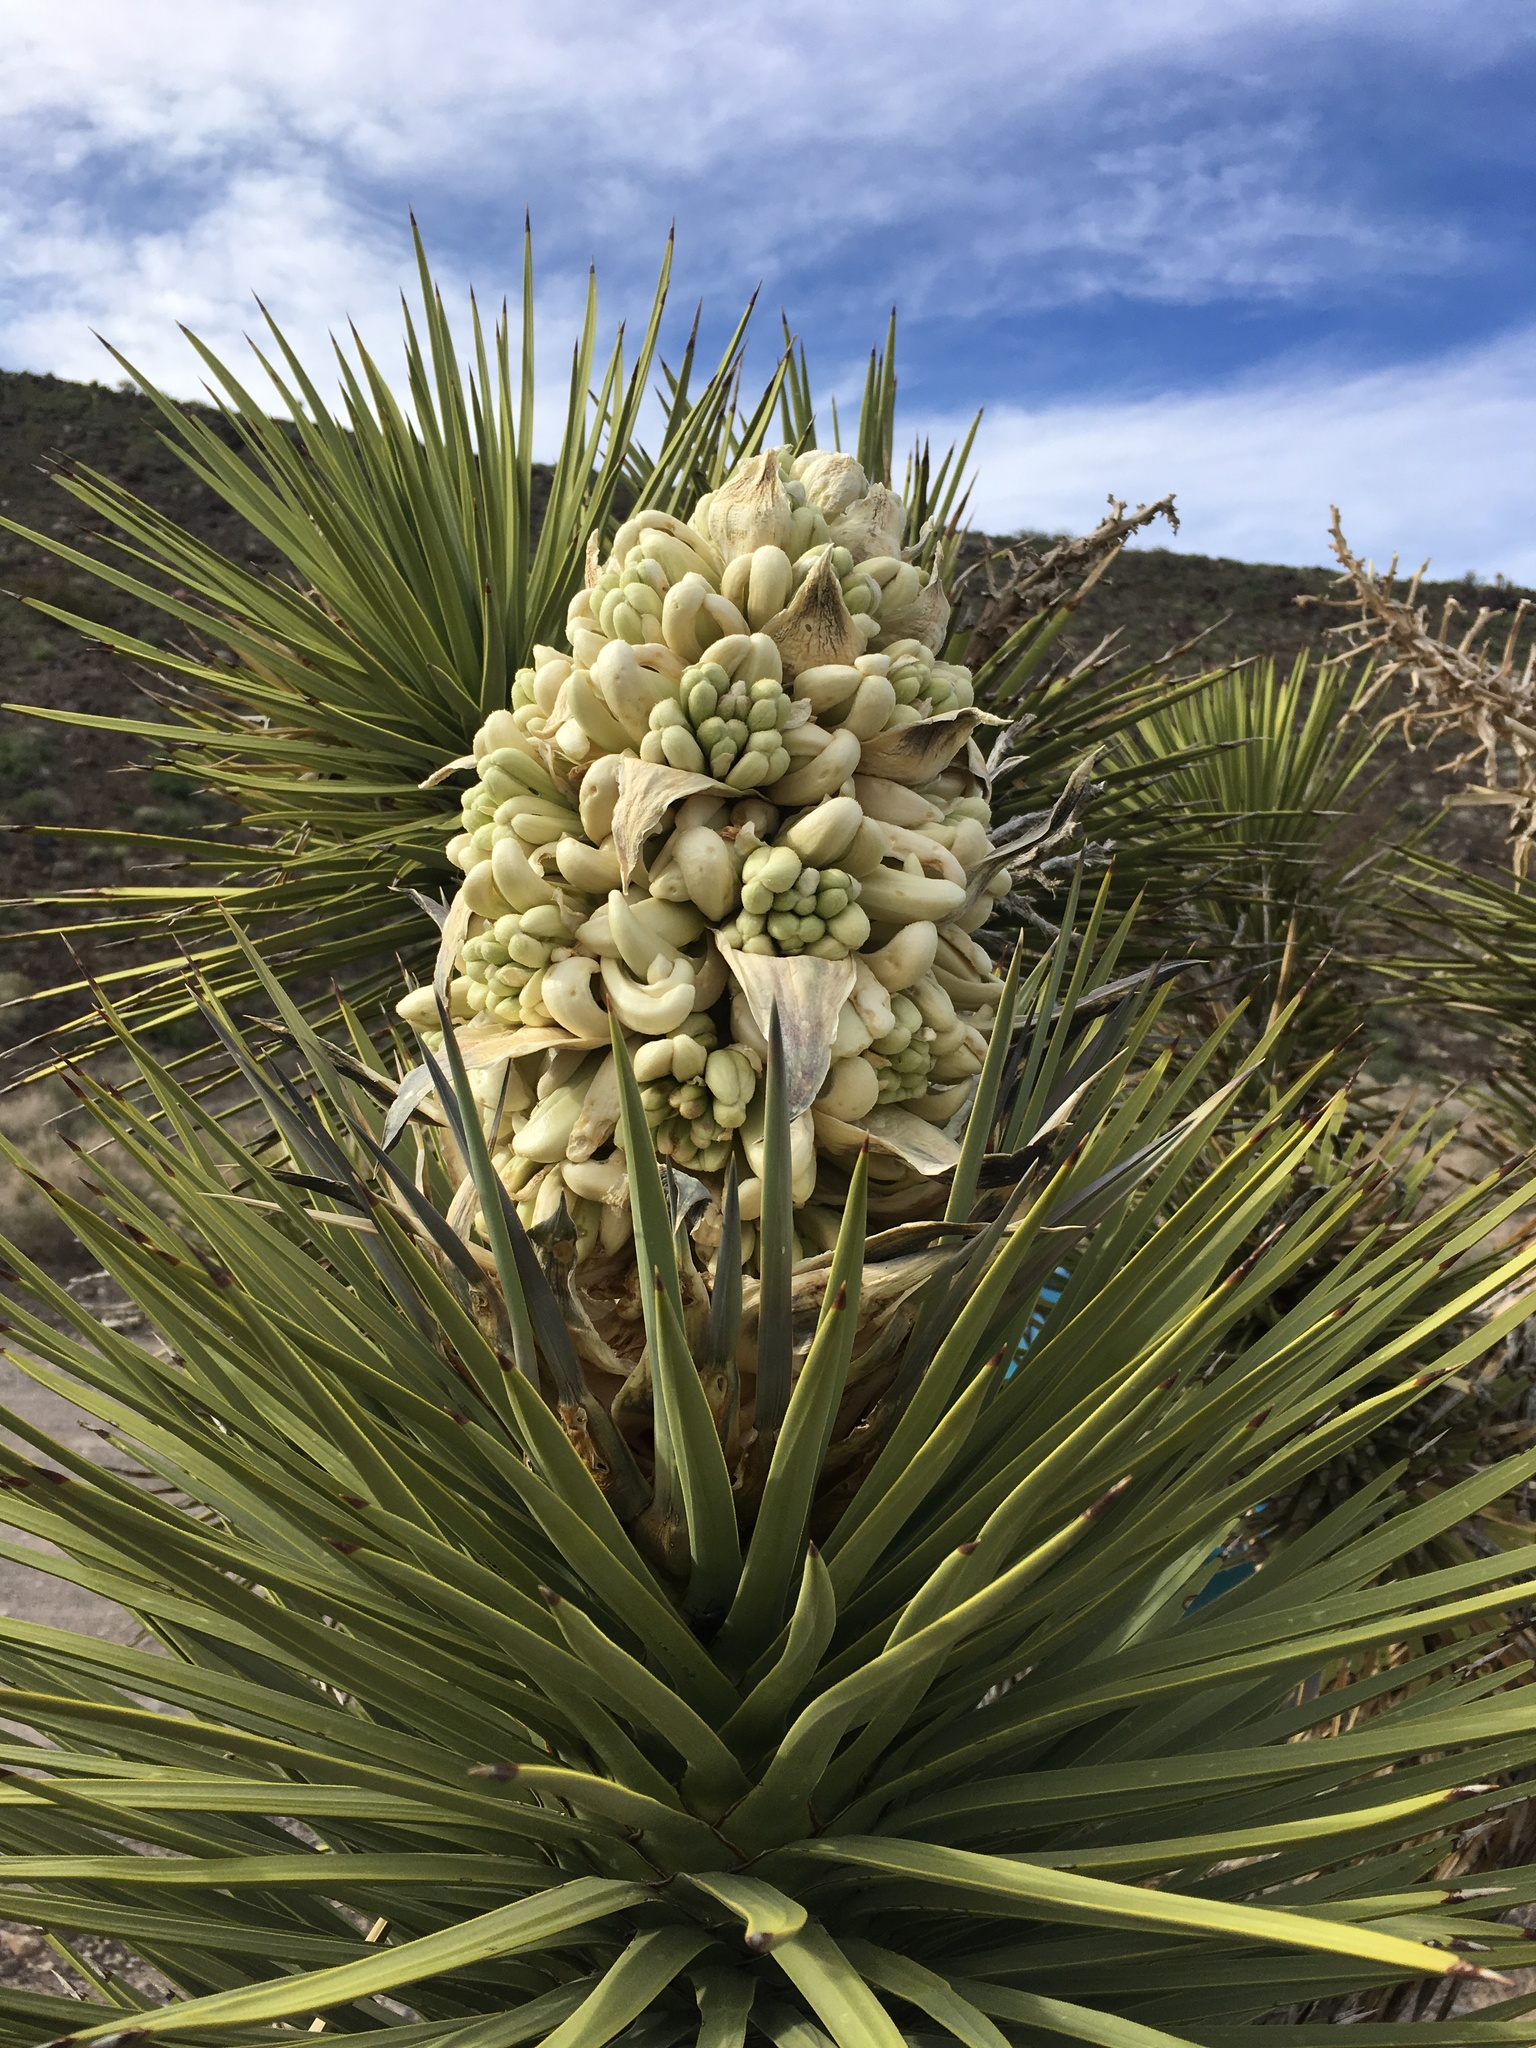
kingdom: Plantae
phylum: Tracheophyta
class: Liliopsida
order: Asparagales
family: Asparagaceae
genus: Yucca
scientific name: Yucca brevifolia
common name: Joshua tree
